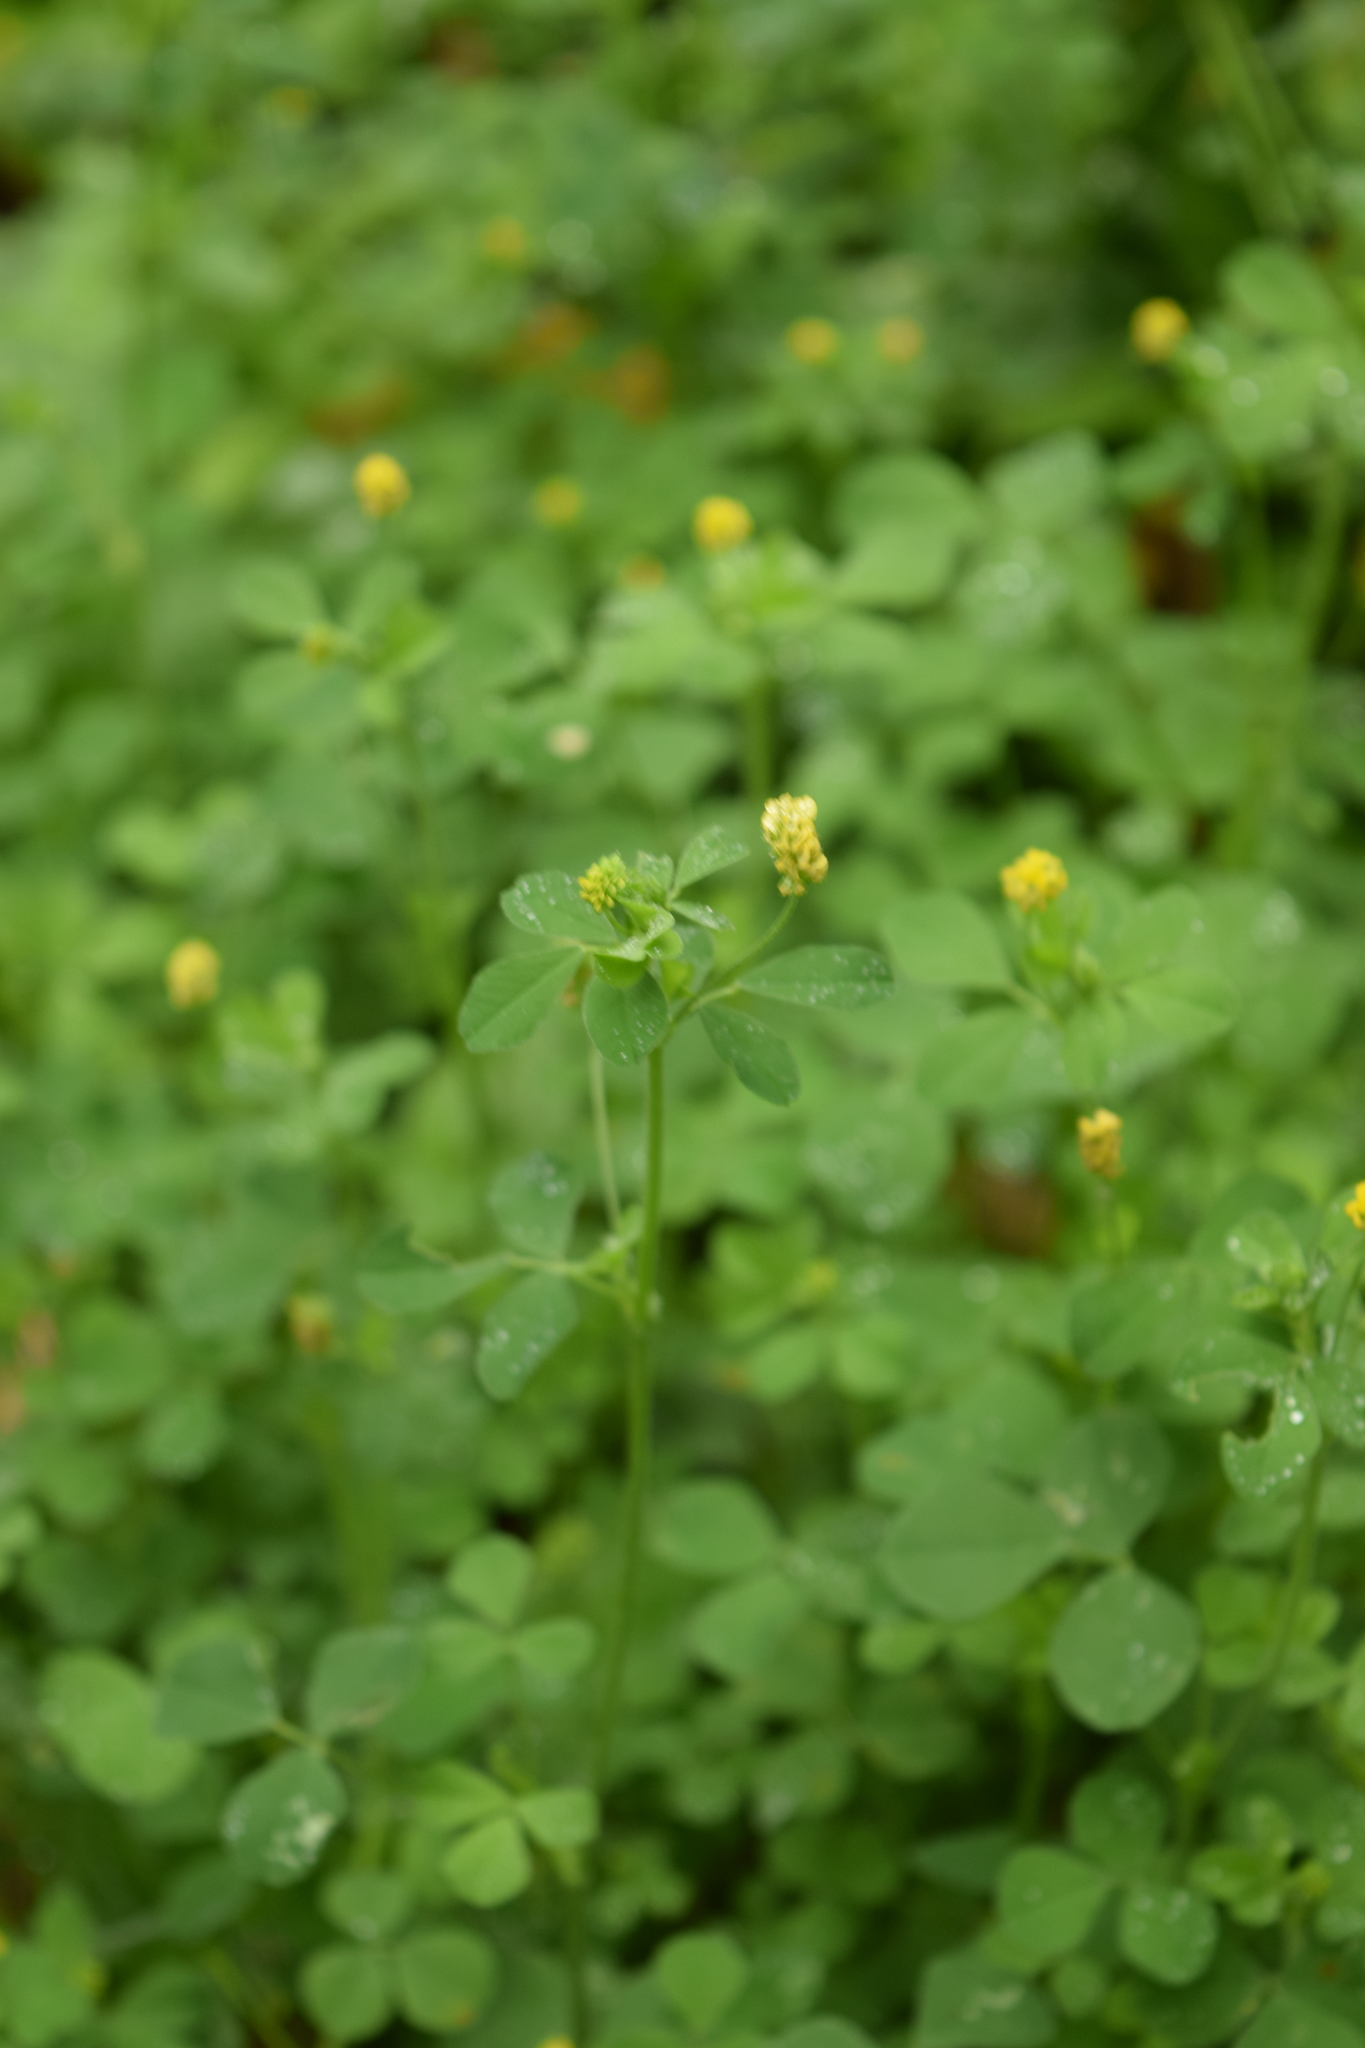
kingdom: Plantae
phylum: Tracheophyta
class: Magnoliopsida
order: Fabales
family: Fabaceae
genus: Medicago
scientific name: Medicago lupulina
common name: Black medick
